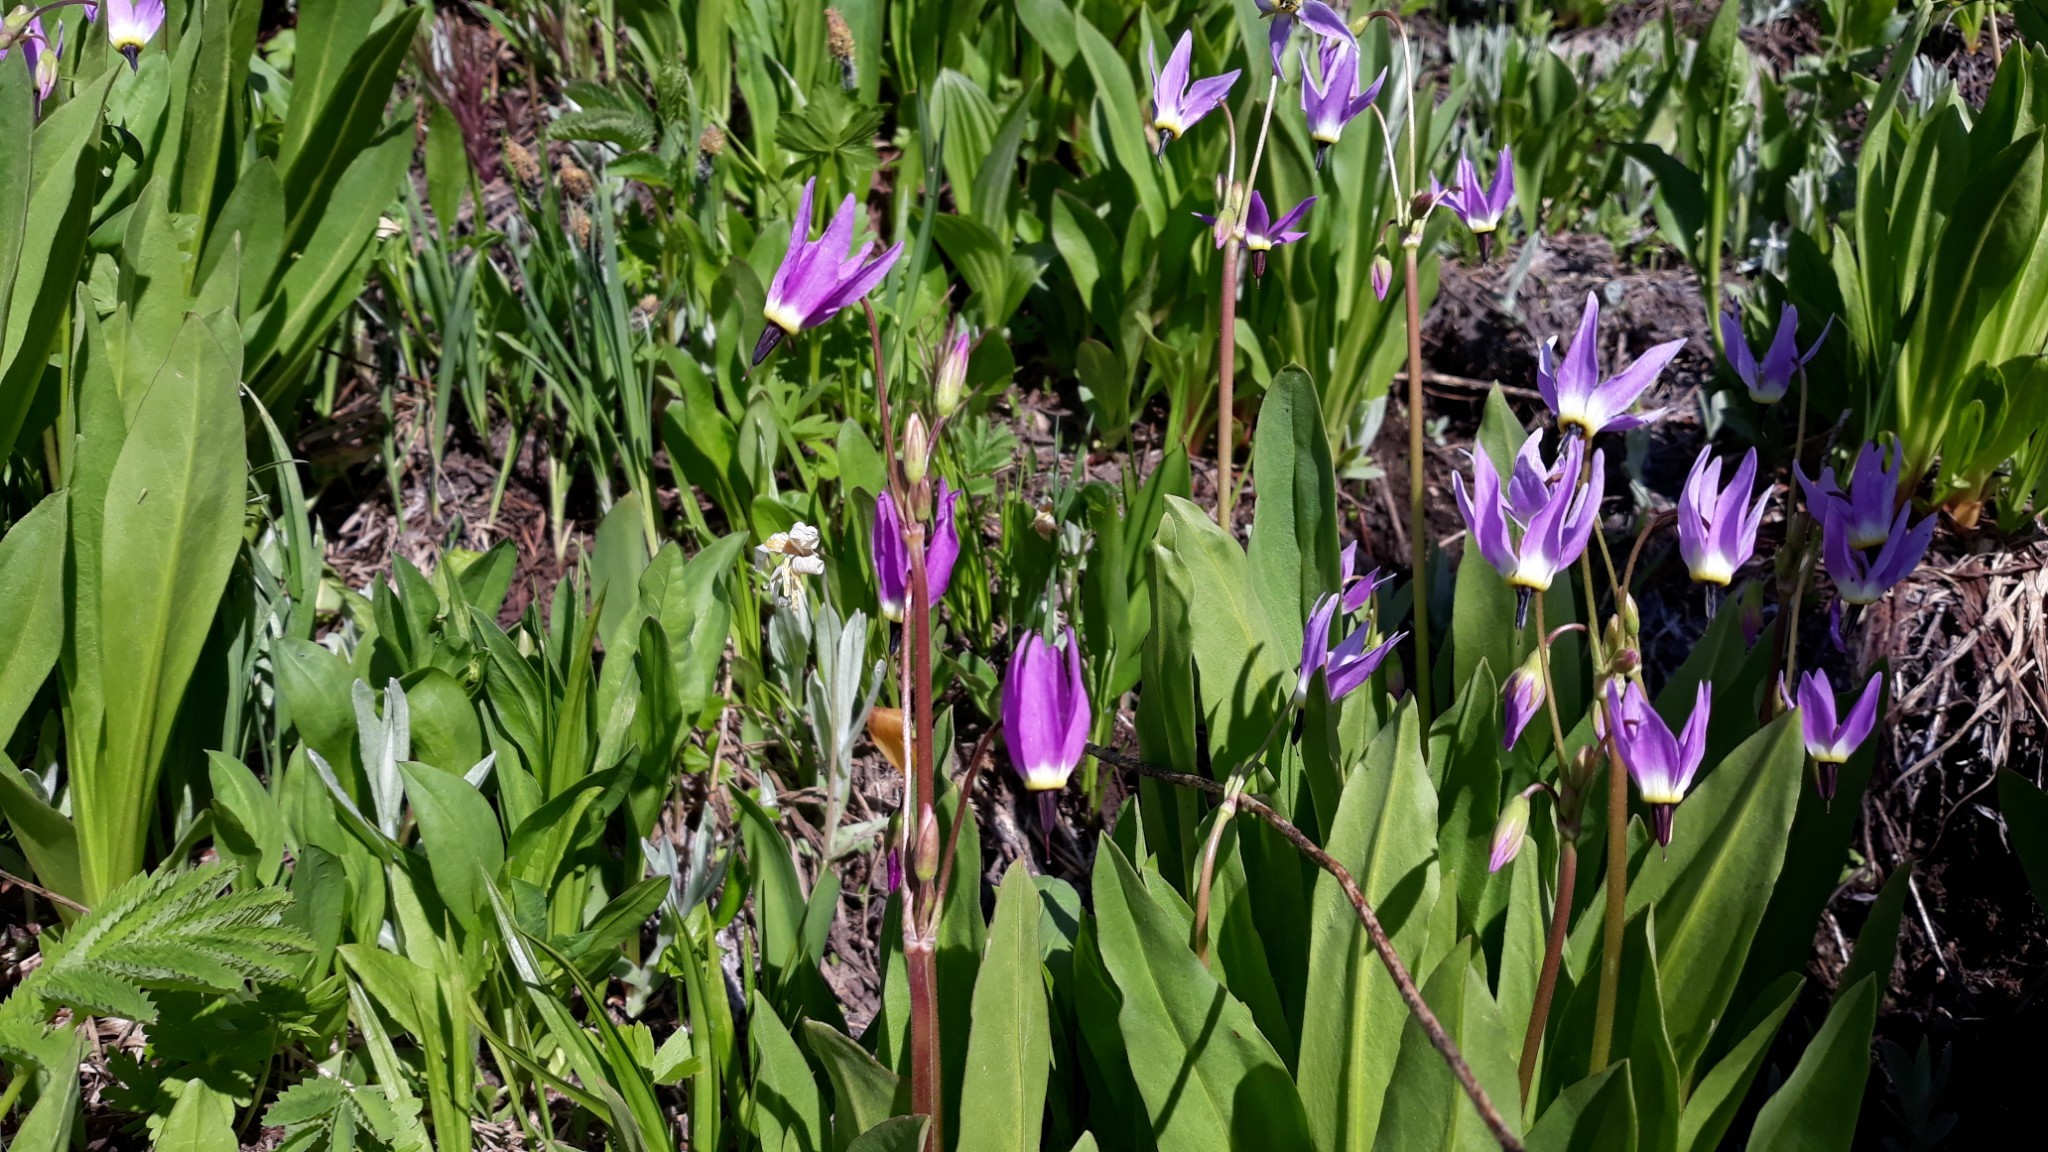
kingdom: Plantae
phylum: Tracheophyta
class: Magnoliopsida
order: Ericales
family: Primulaceae
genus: Dodecatheon
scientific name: Dodecatheon jeffreyanum
